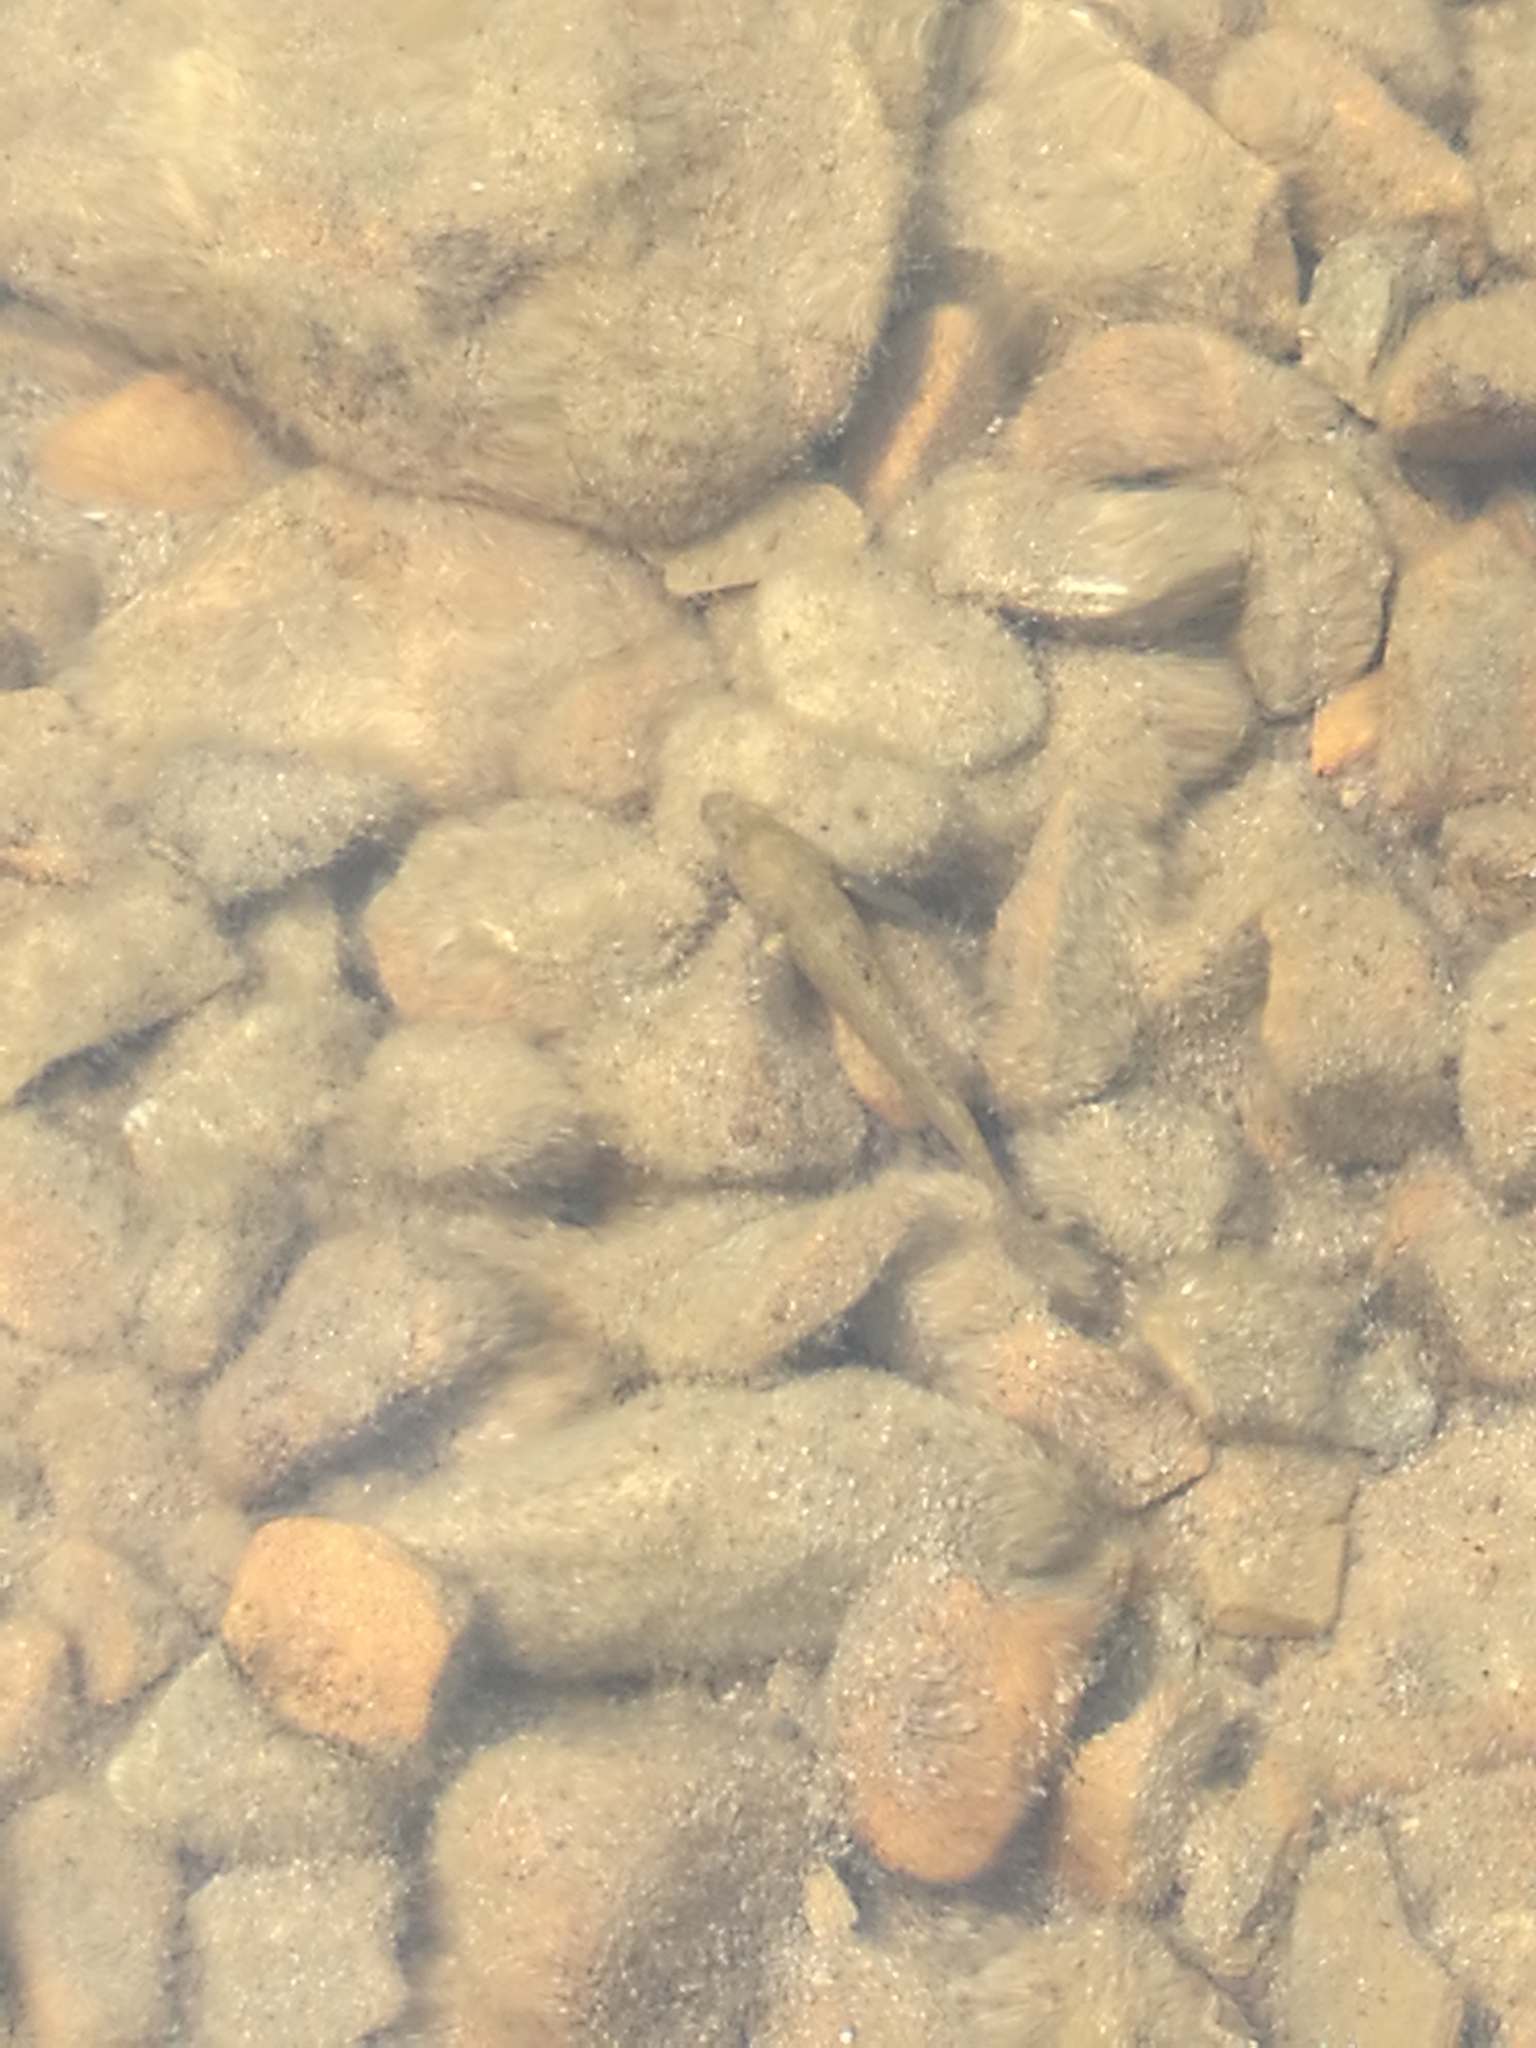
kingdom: Animalia
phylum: Chordata
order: Perciformes
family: Eleotridae
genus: Gobiomorphus
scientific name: Gobiomorphus breviceps
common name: Upland bully
